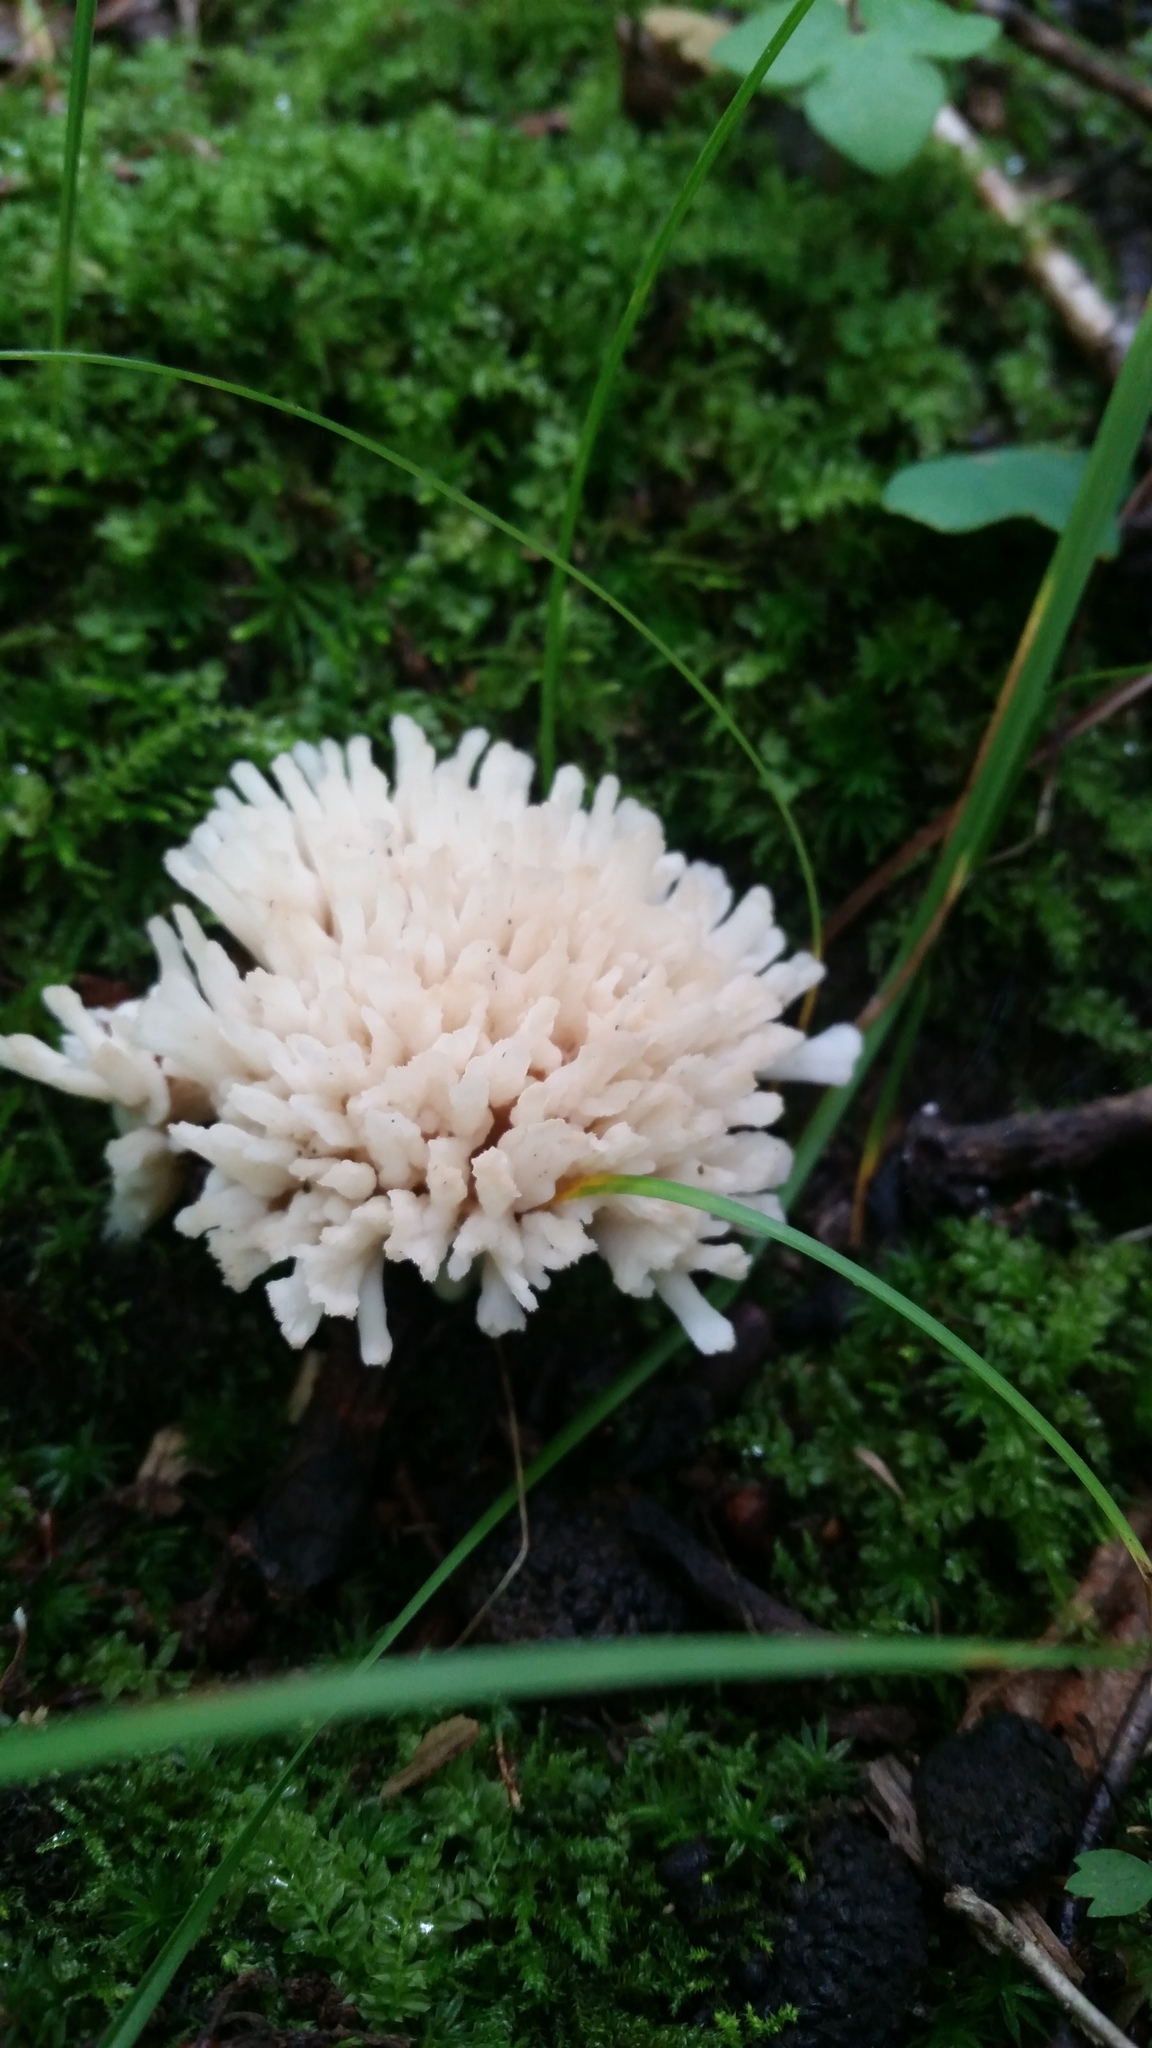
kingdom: Fungi
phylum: Basidiomycota
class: Agaricomycetes
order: Sebacinales
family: Sebacinaceae
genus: Sebacina
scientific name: Sebacina schweinitzii
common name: Jellied false coral fungus
